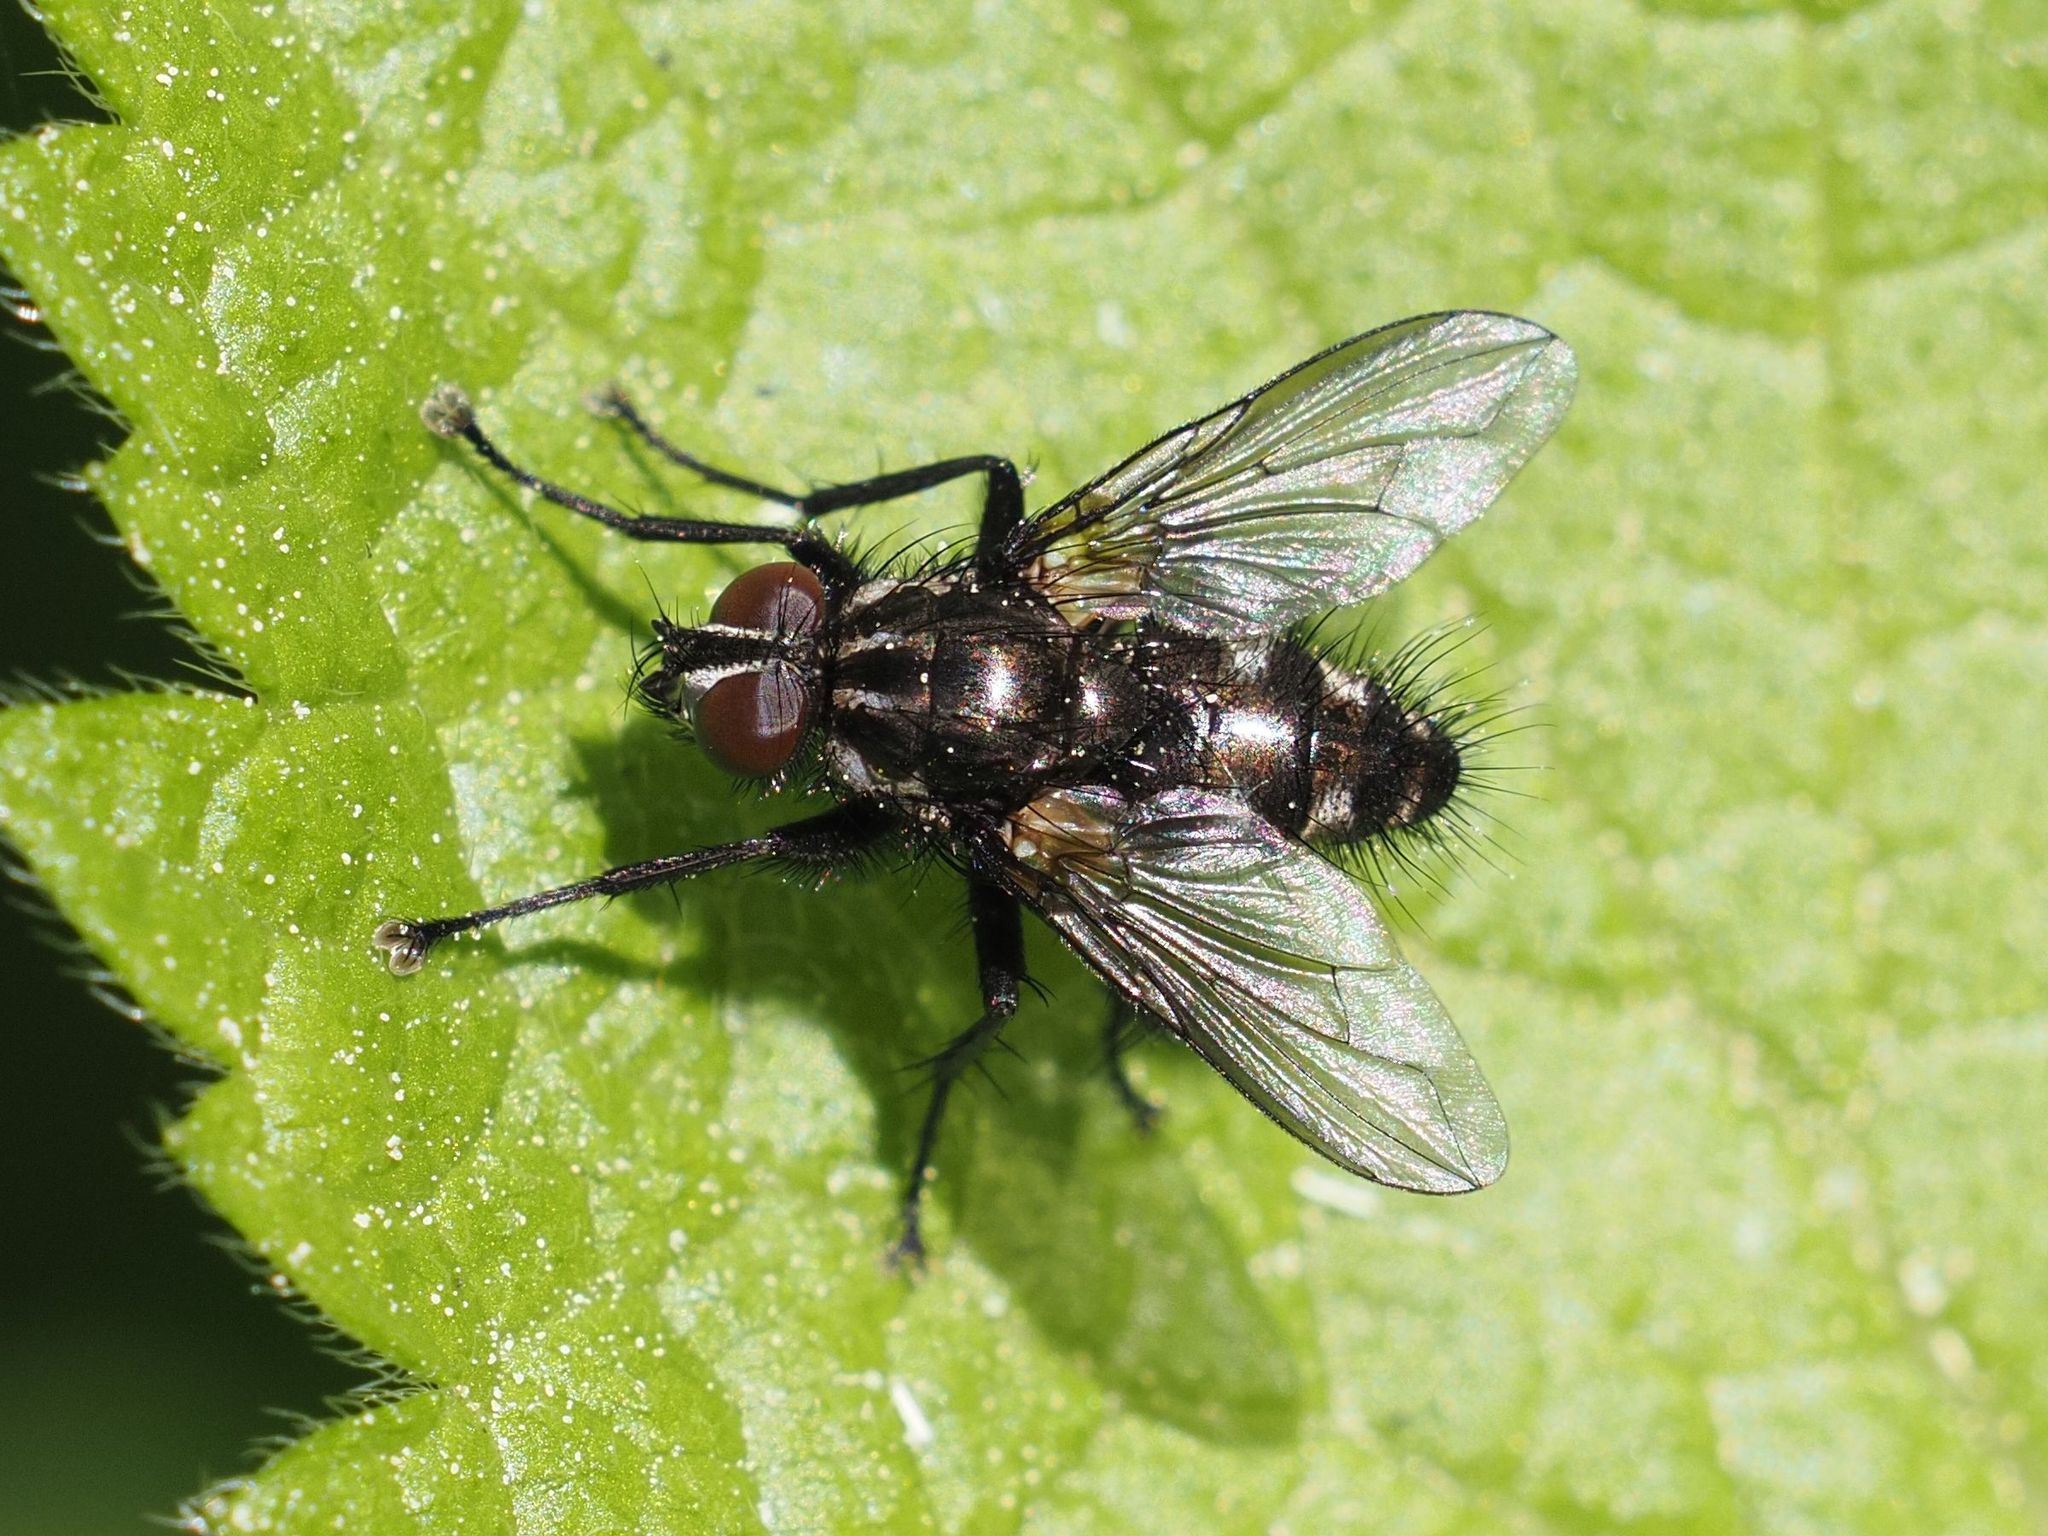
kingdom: Animalia
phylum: Arthropoda
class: Insecta
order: Diptera
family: Calliphoridae
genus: Rhinomorinia
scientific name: Rhinomorinia sarcophagina
